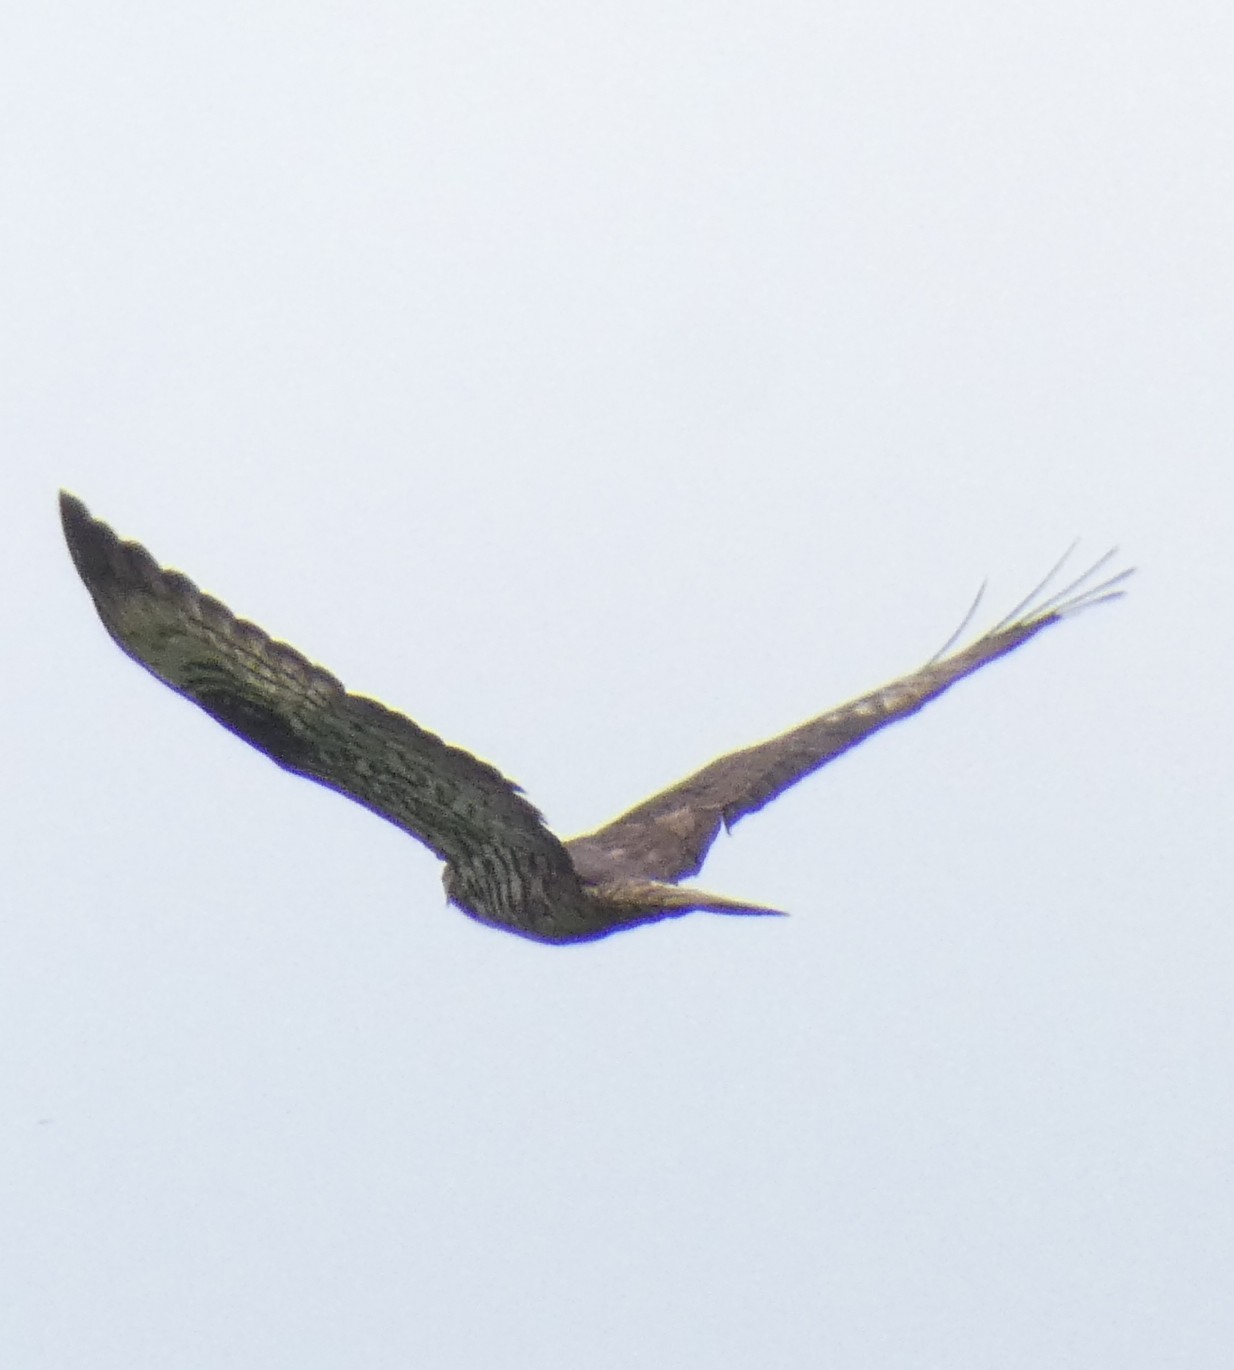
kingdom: Animalia
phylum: Chordata
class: Aves
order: Accipitriformes
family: Accipitridae
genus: Pernis
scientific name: Pernis apivorus
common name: European honey buzzard
